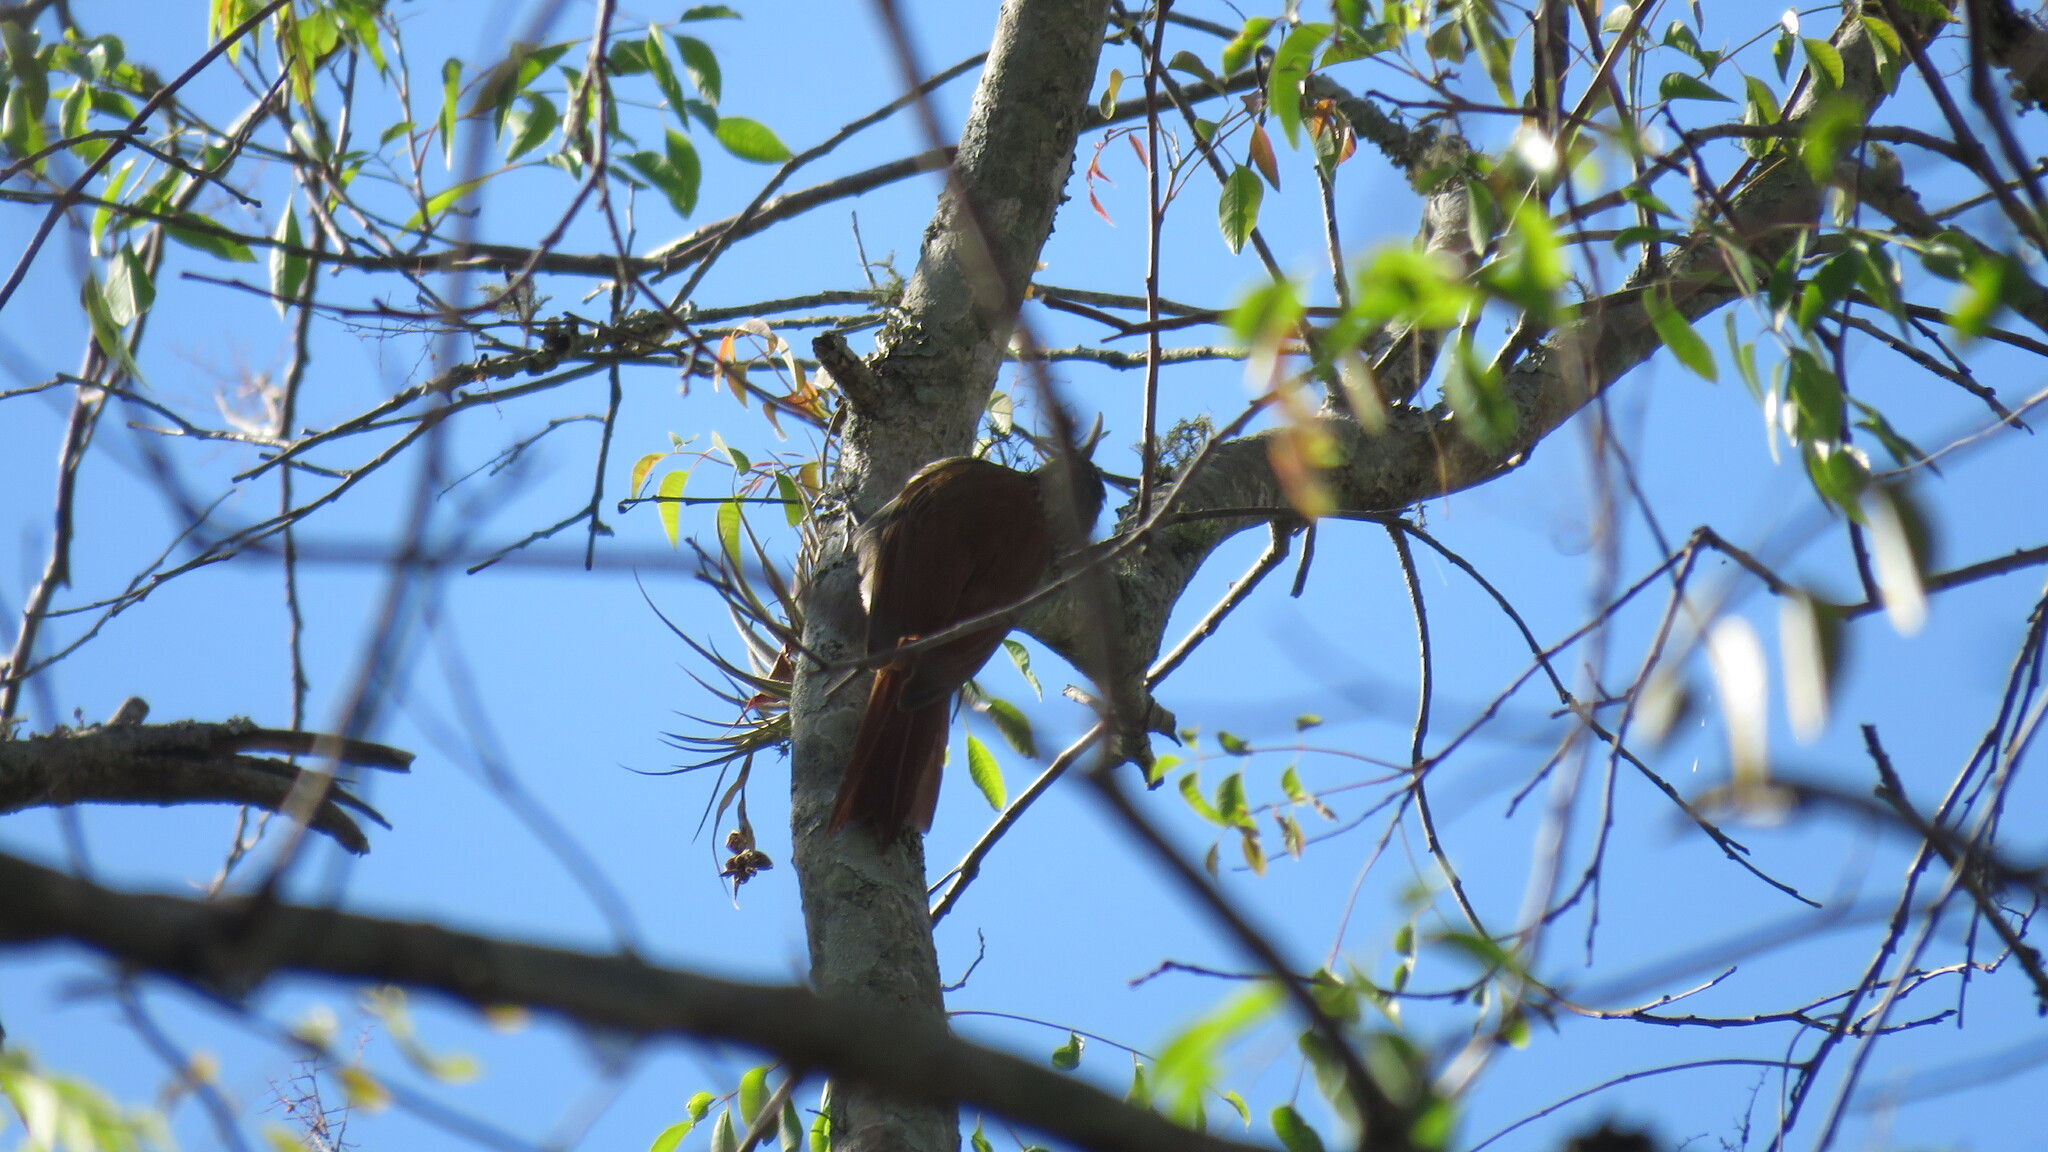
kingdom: Animalia
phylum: Chordata
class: Aves
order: Passeriformes
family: Furnariidae
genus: Lepidocolaptes
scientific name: Lepidocolaptes angustirostris
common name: Narrow-billed woodcreeper
